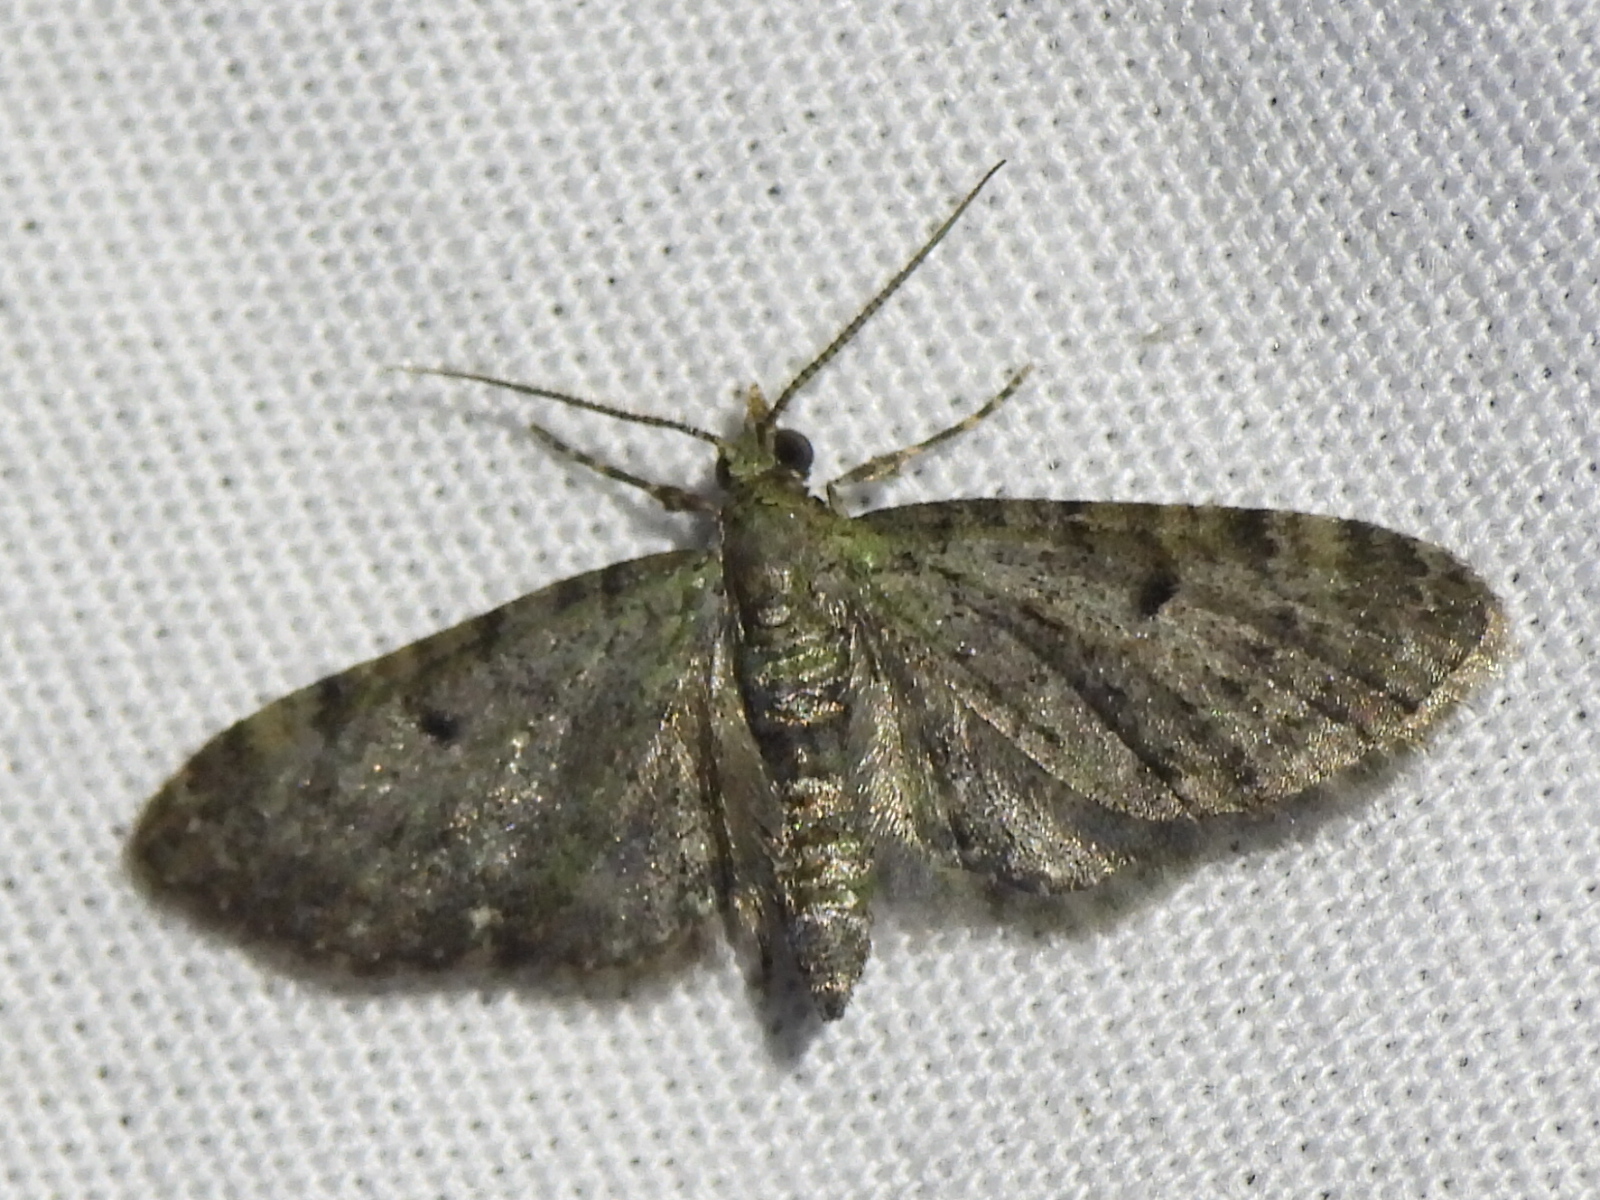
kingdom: Animalia
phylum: Arthropoda
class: Insecta
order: Lepidoptera
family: Geometridae
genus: Eupithecia
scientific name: Eupithecia miserulata
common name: Common eupithecia
